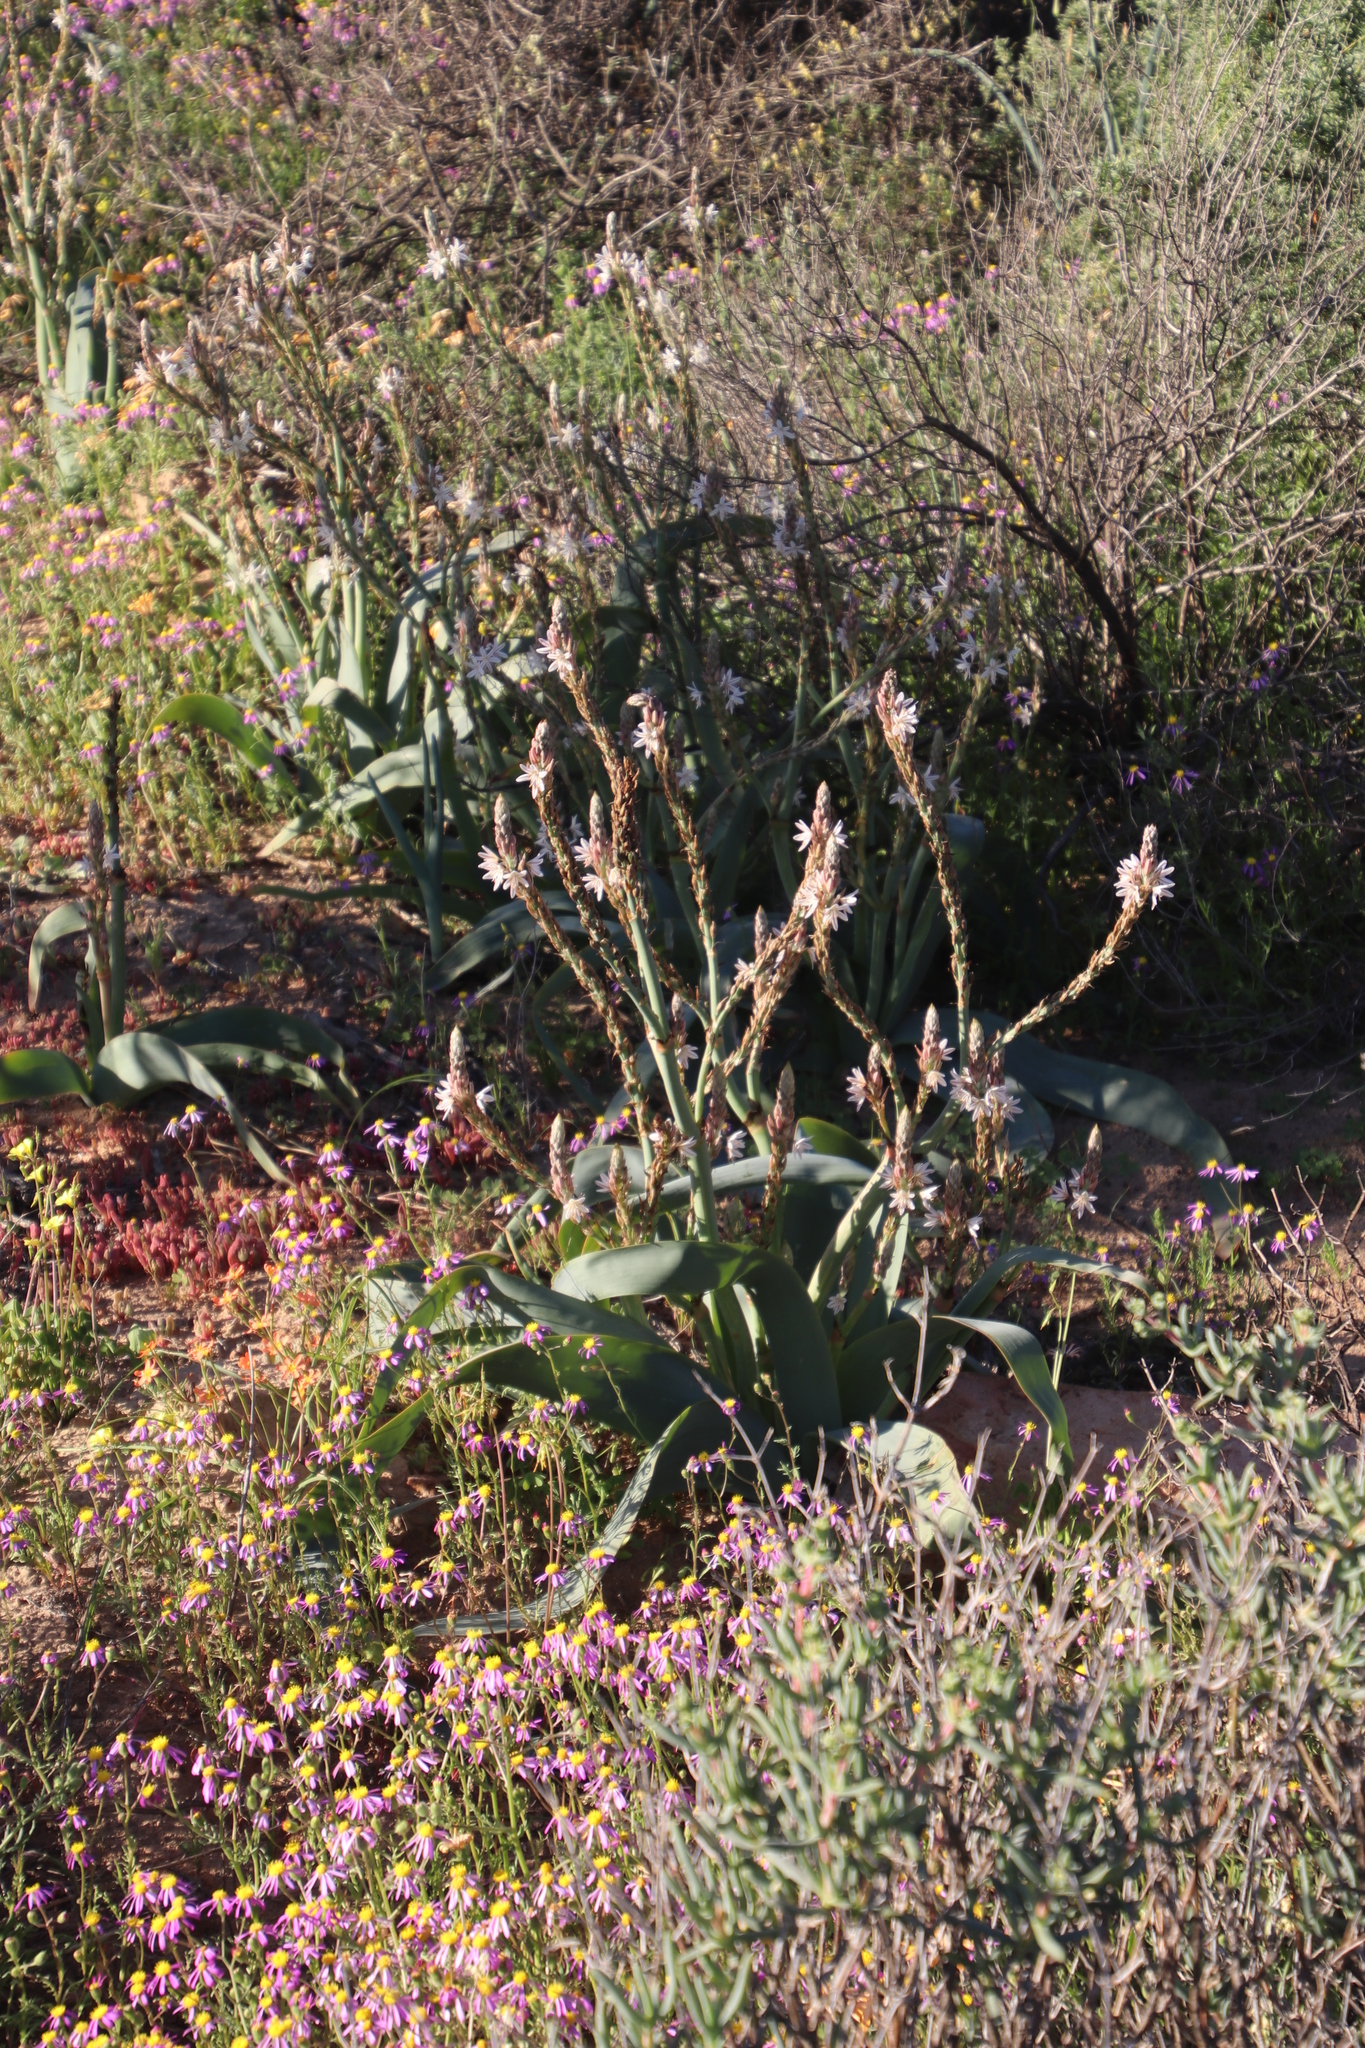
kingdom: Plantae
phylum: Tracheophyta
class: Liliopsida
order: Asparagales
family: Asphodelaceae
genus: Trachyandra
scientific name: Trachyandra falcata
